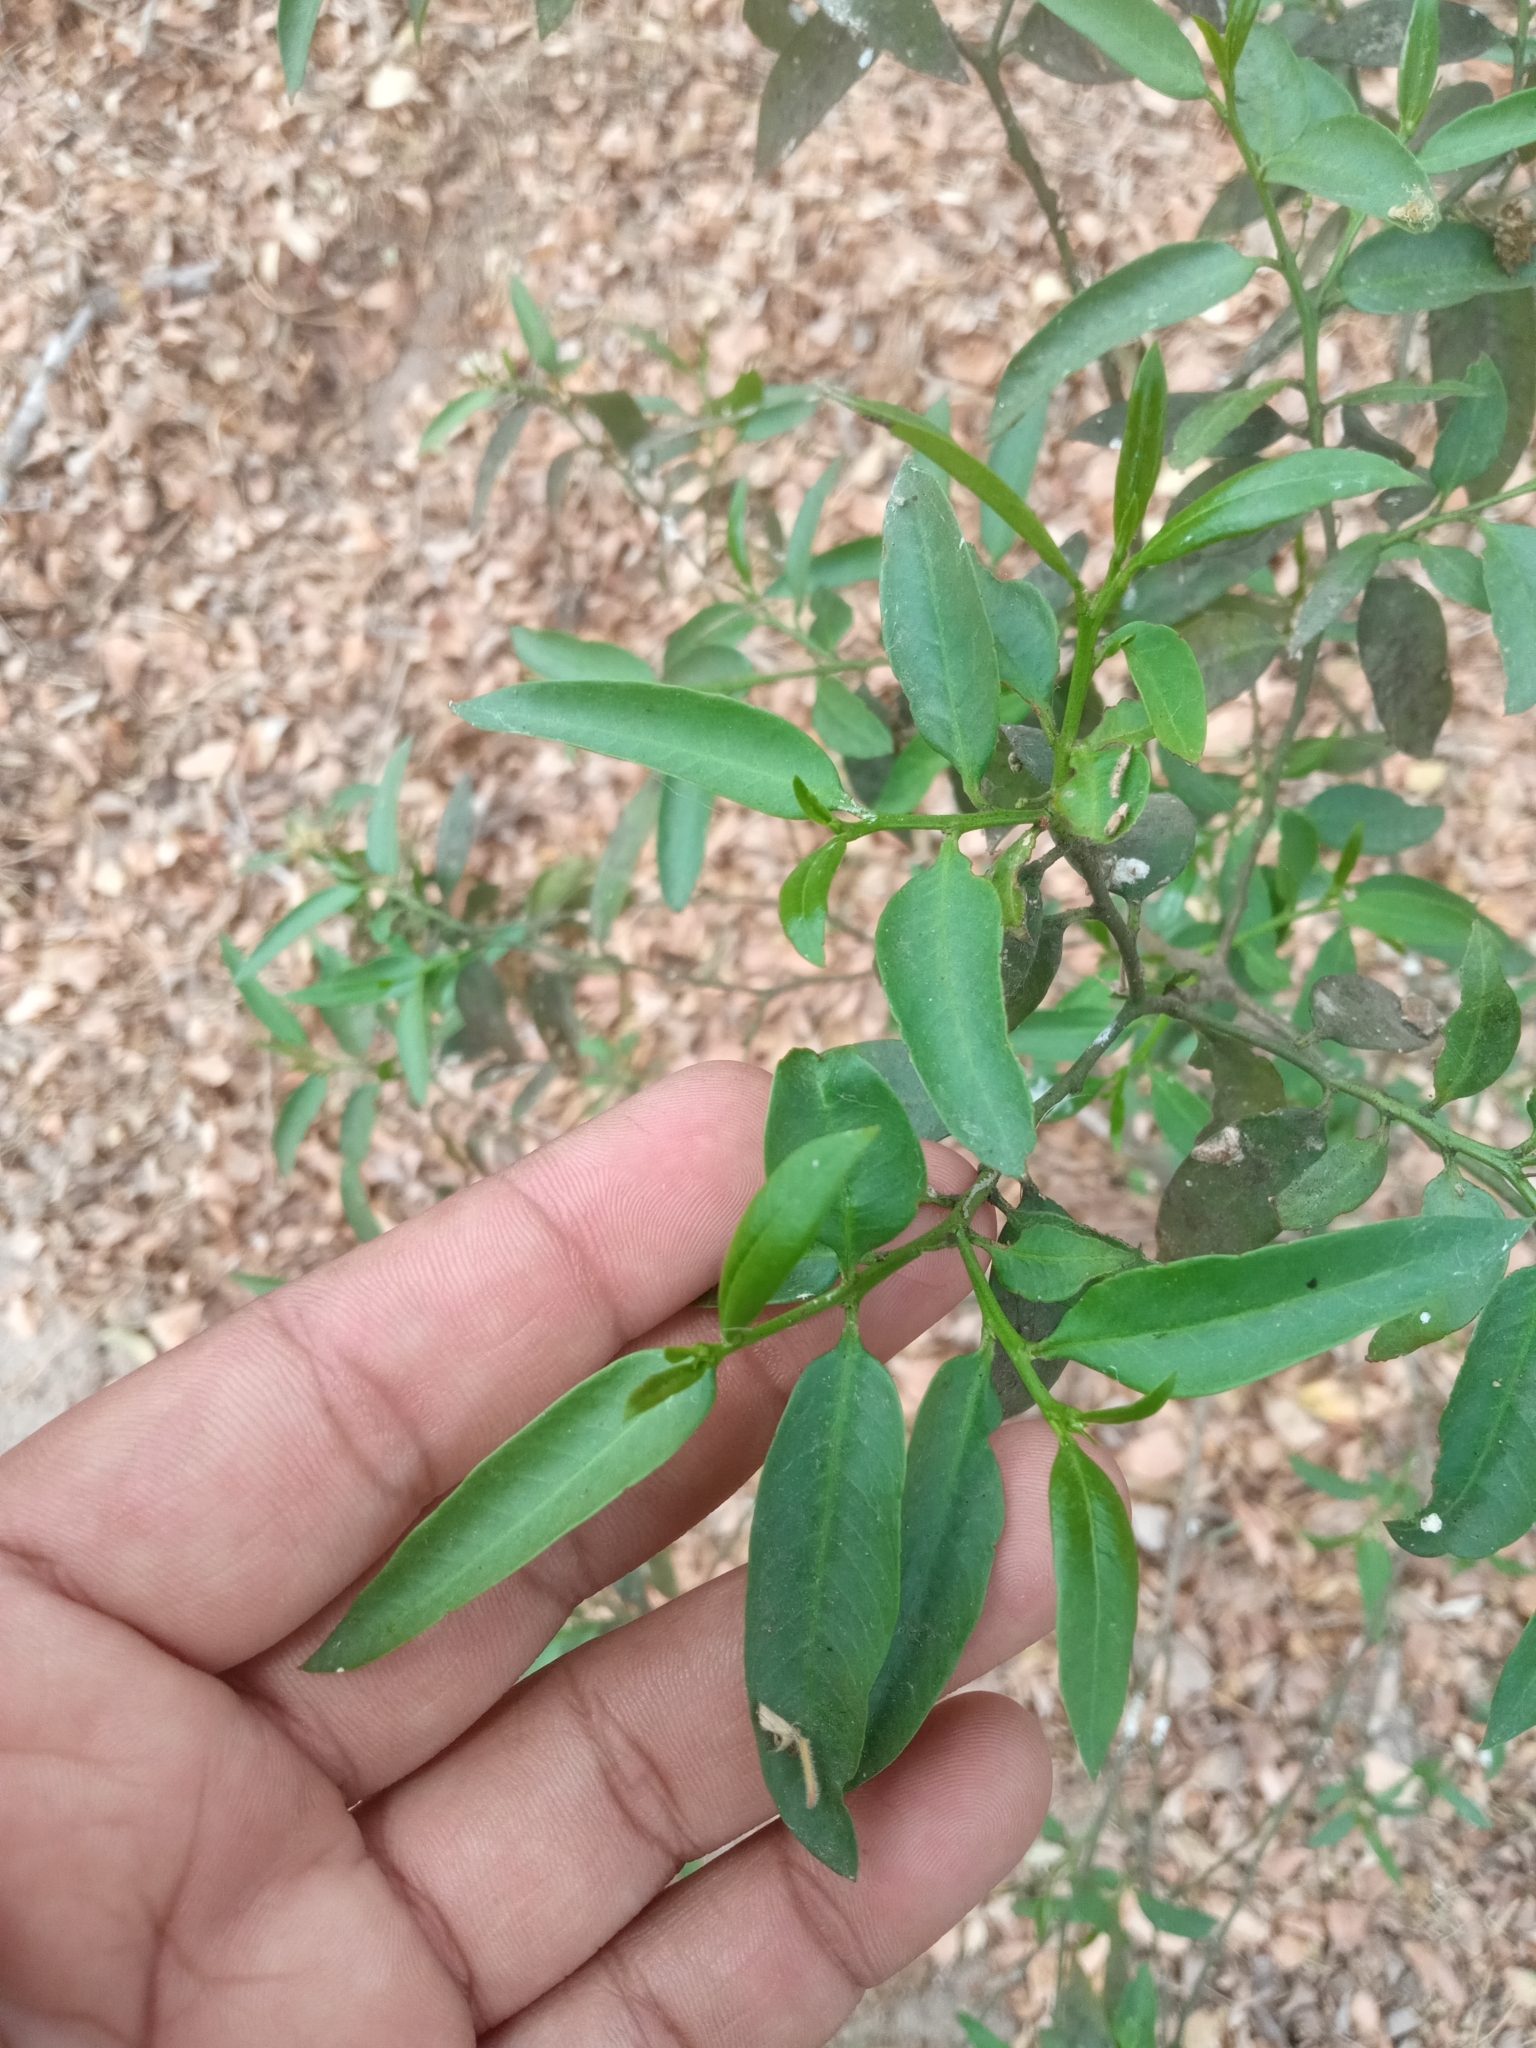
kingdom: Plantae
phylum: Tracheophyta
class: Magnoliopsida
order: Gentianales
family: Apocynaceae
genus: Vallesia
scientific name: Vallesia glabra
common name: Pearlberry
